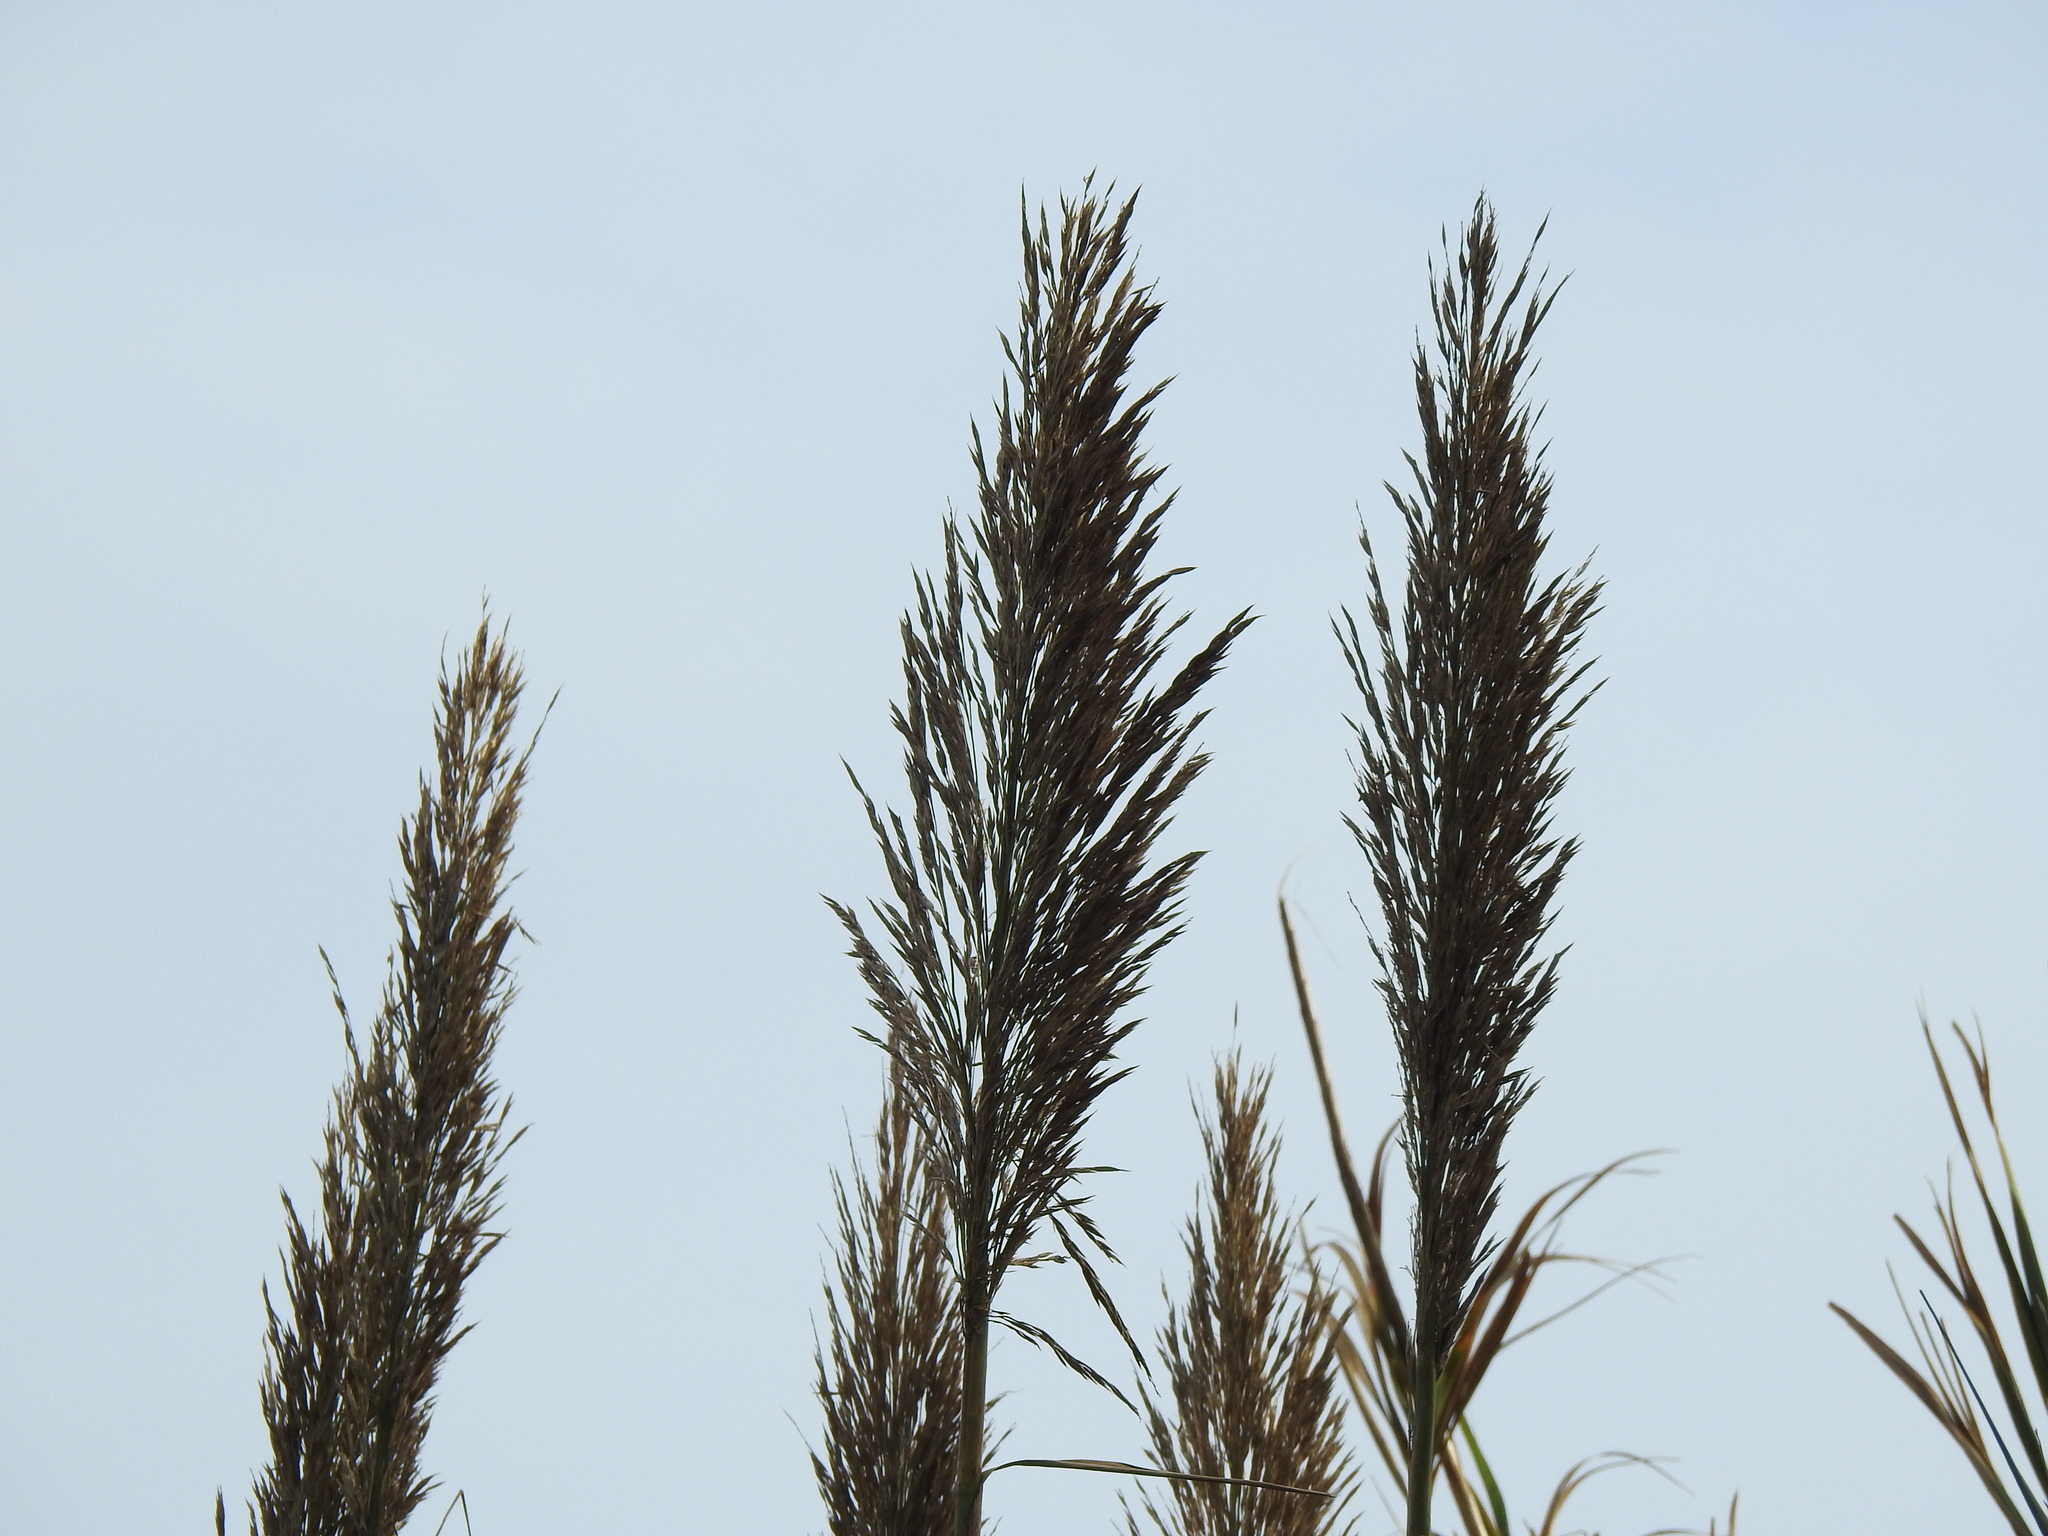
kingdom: Plantae
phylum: Tracheophyta
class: Liliopsida
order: Poales
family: Poaceae
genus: Arundo
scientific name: Arundo donax
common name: Giant reed
